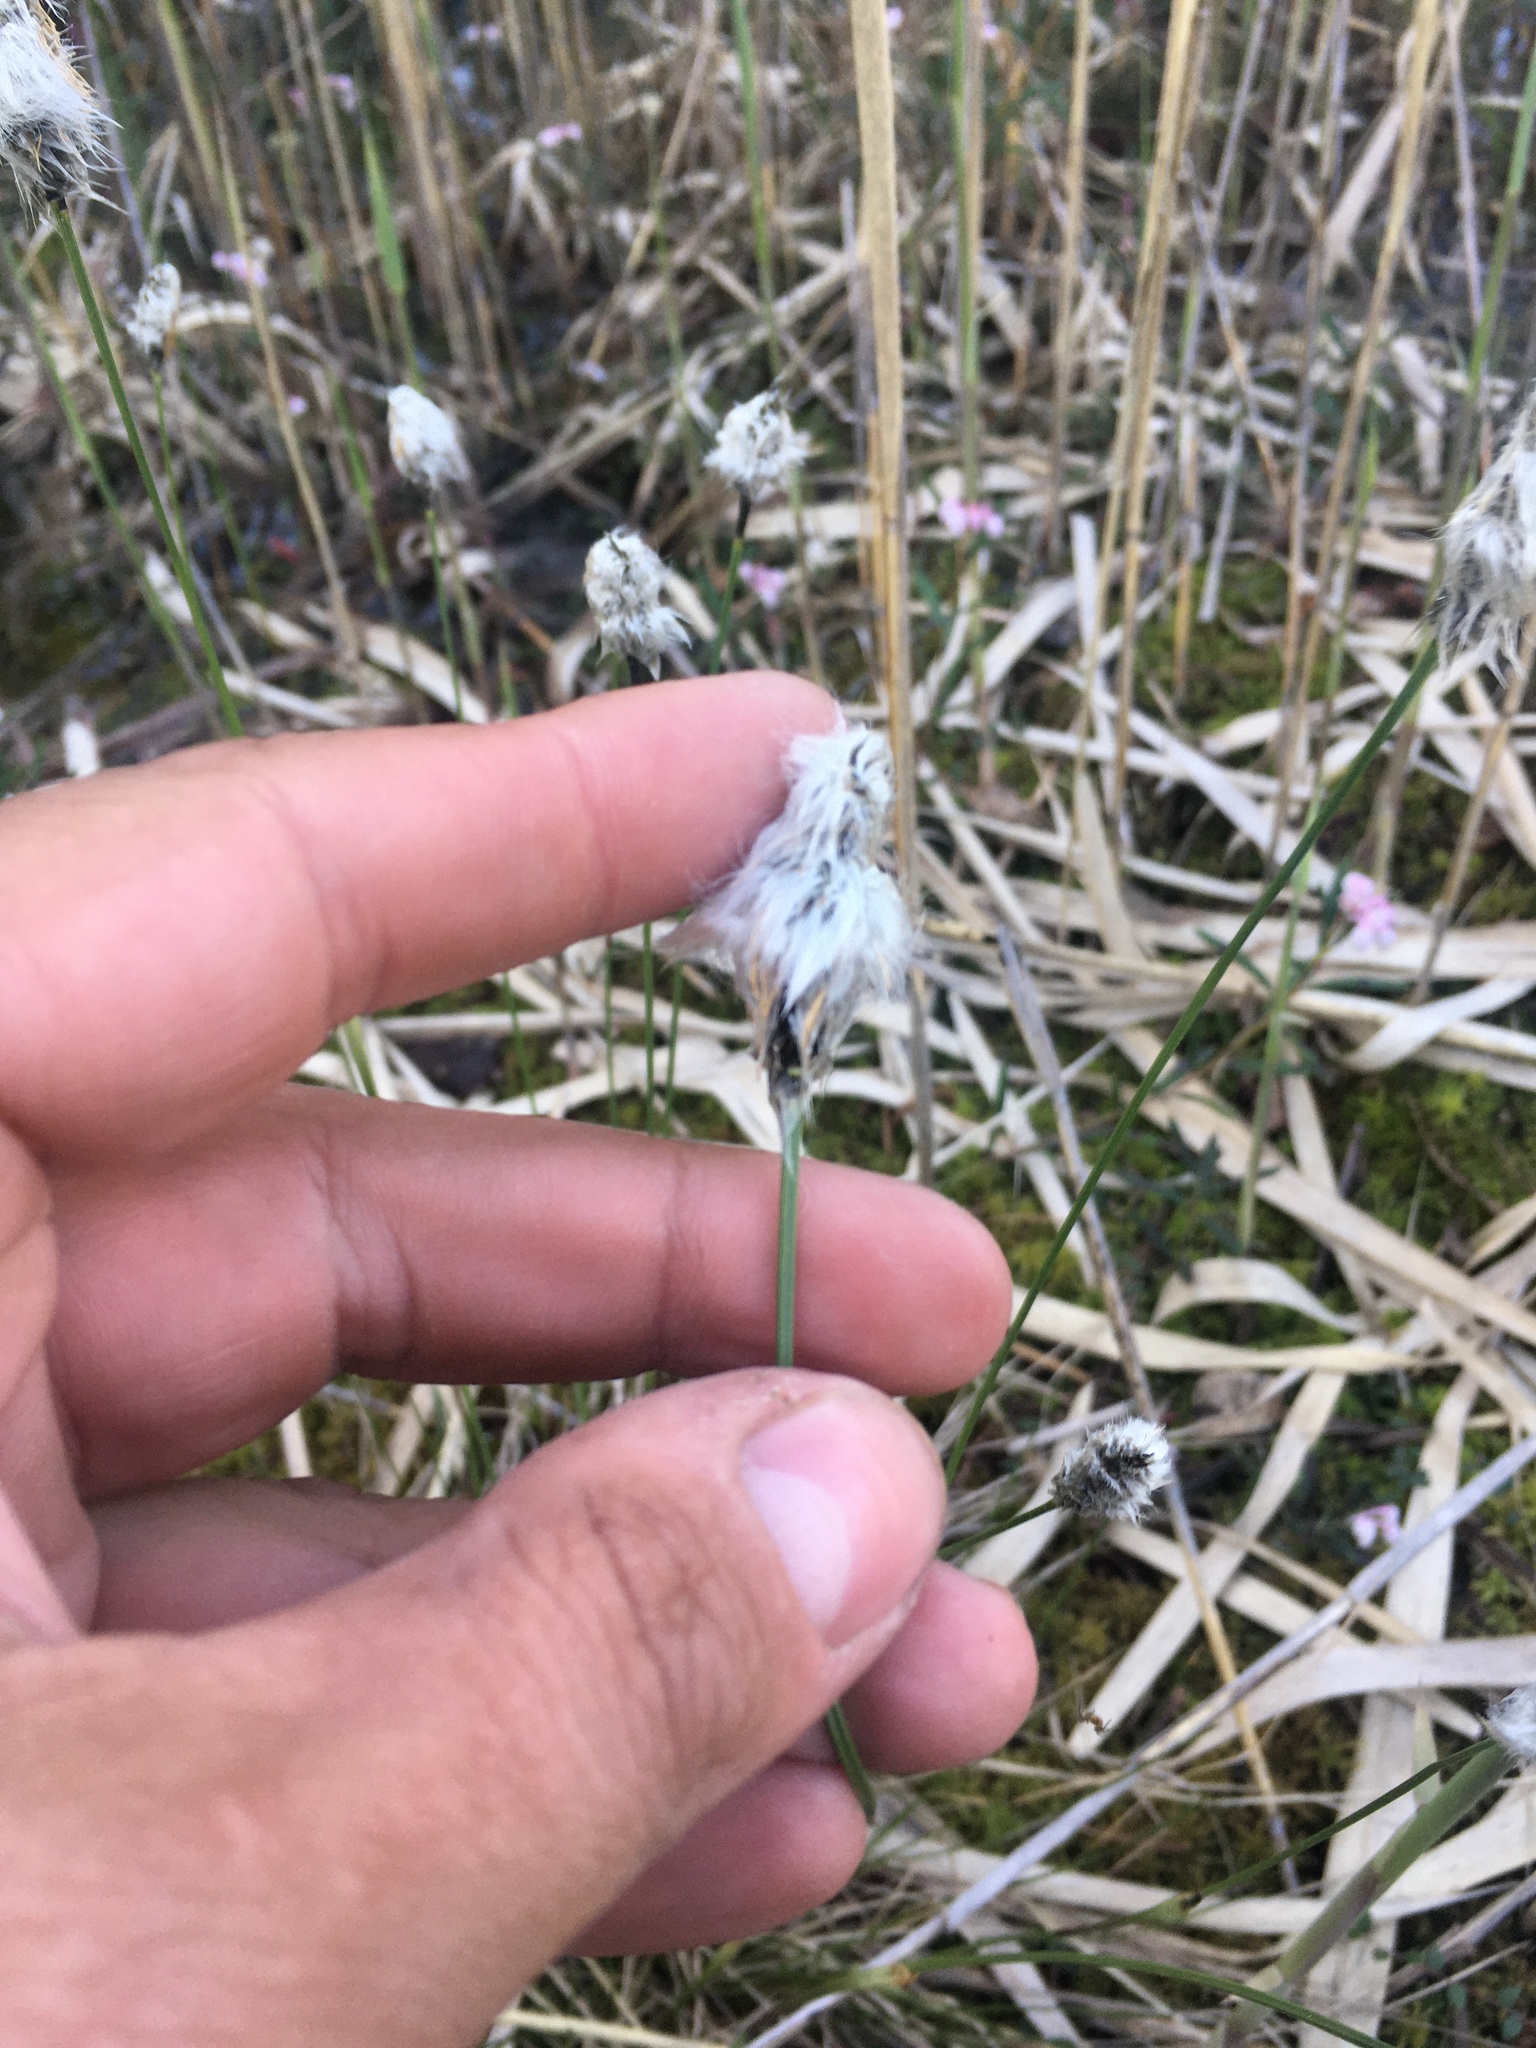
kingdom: Plantae
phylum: Tracheophyta
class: Liliopsida
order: Poales
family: Cyperaceae
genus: Eriophorum
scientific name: Eriophorum vaginatum
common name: Hare's-tail cottongrass
